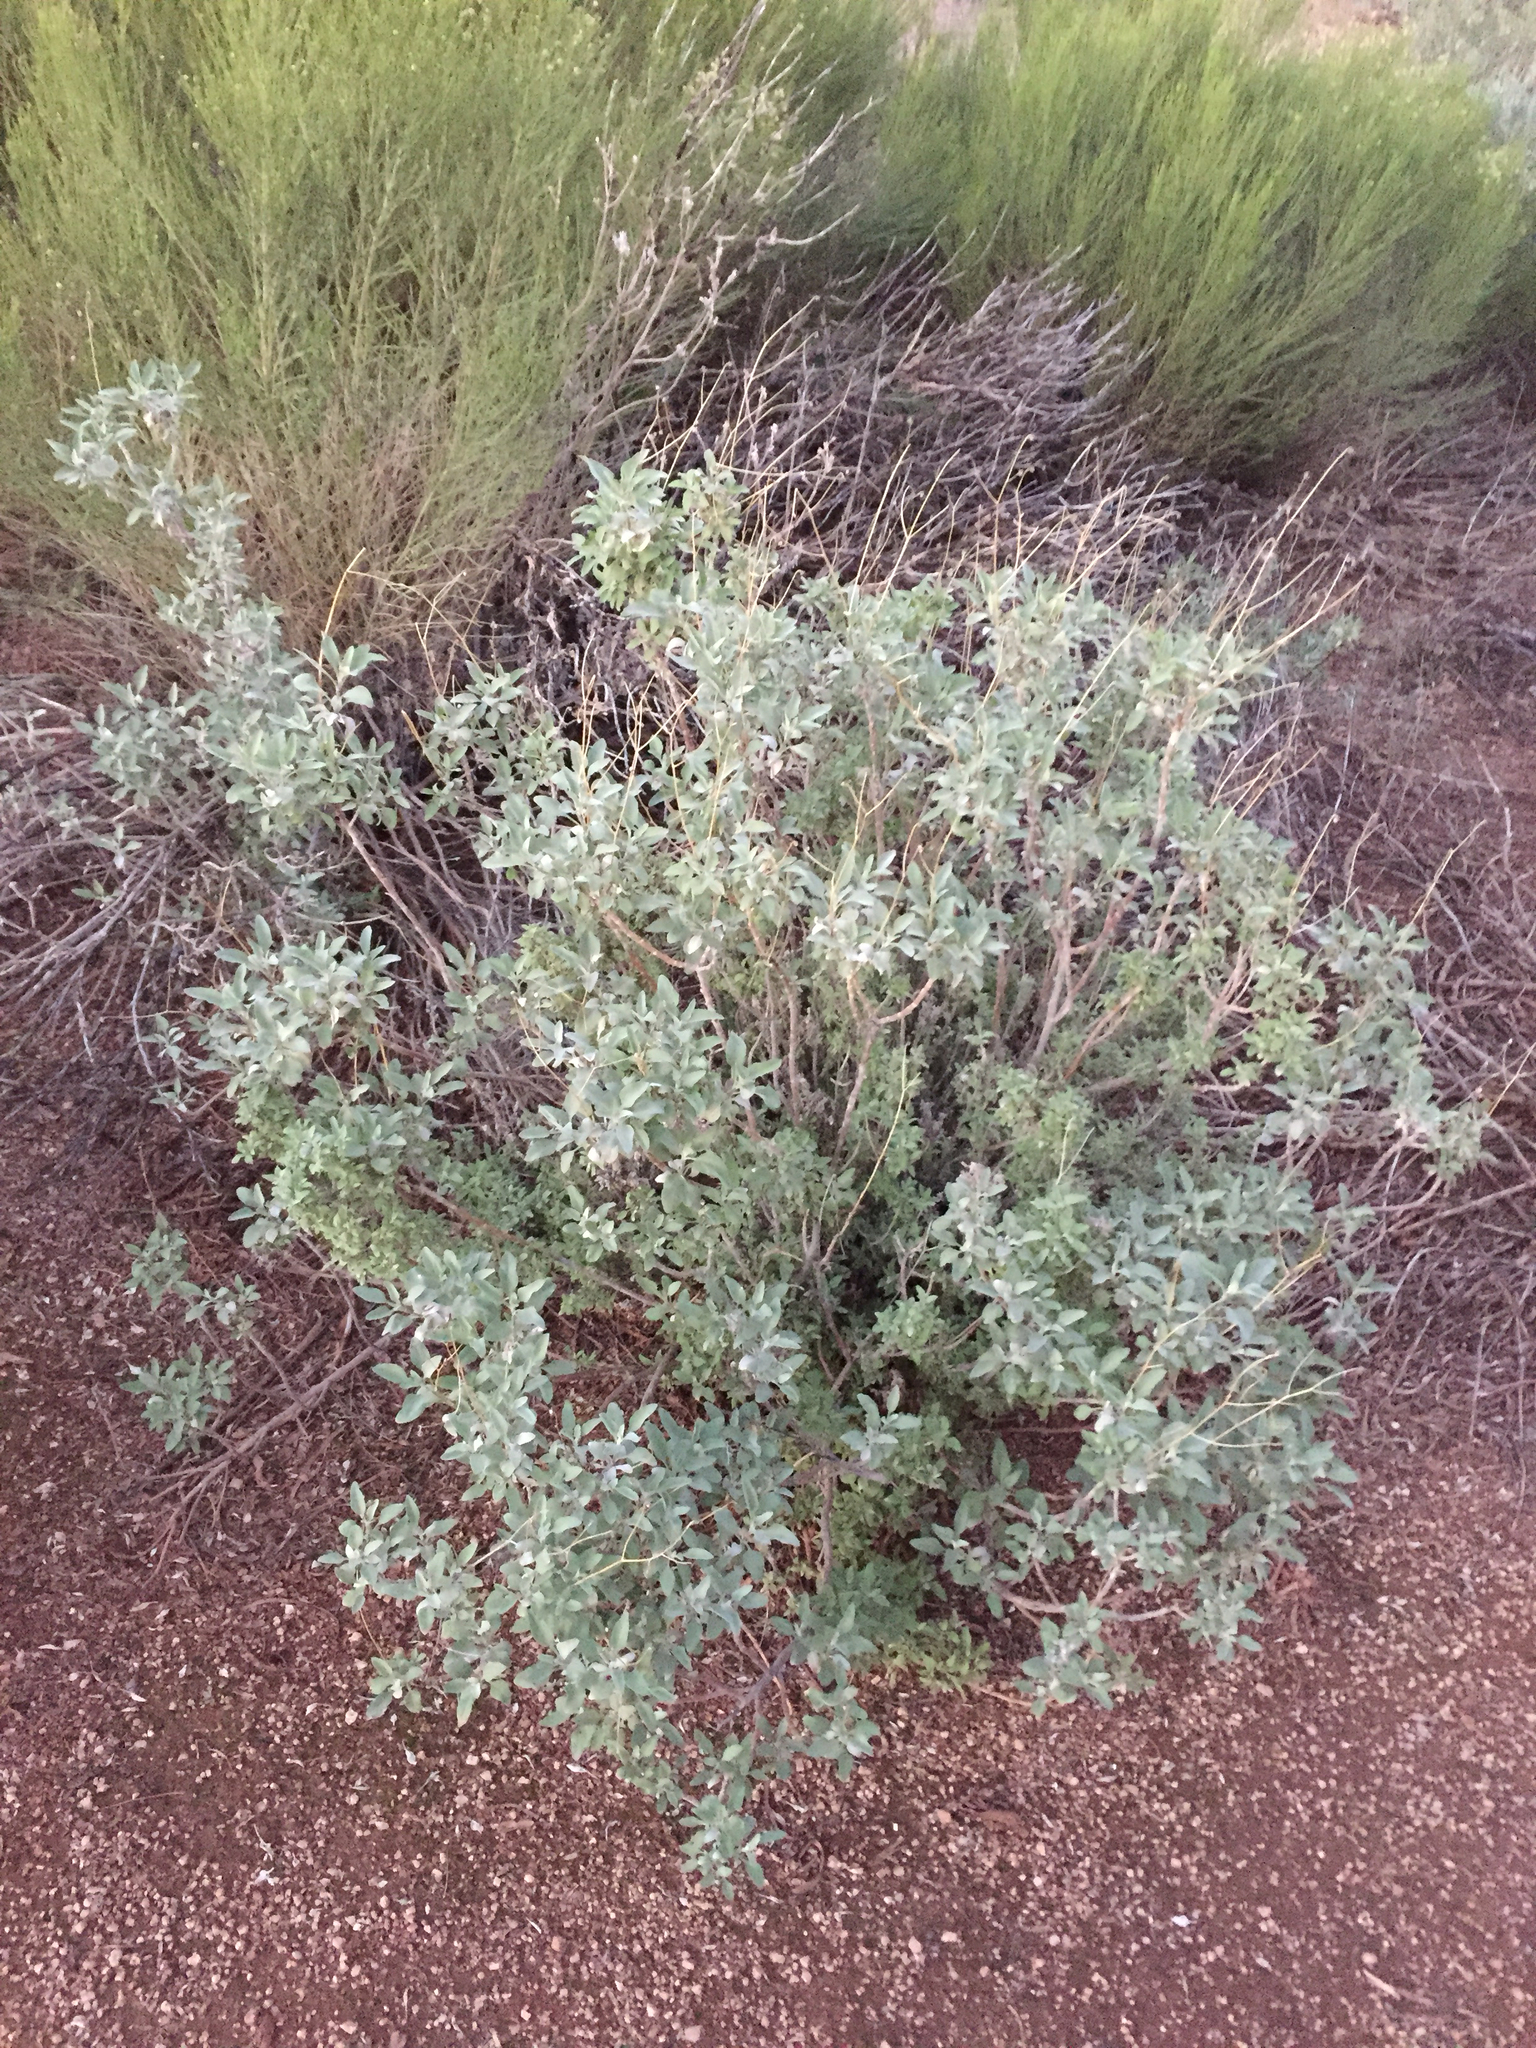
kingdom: Plantae
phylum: Tracheophyta
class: Magnoliopsida
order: Asterales
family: Asteraceae
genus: Encelia
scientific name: Encelia farinosa
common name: Brittlebush
